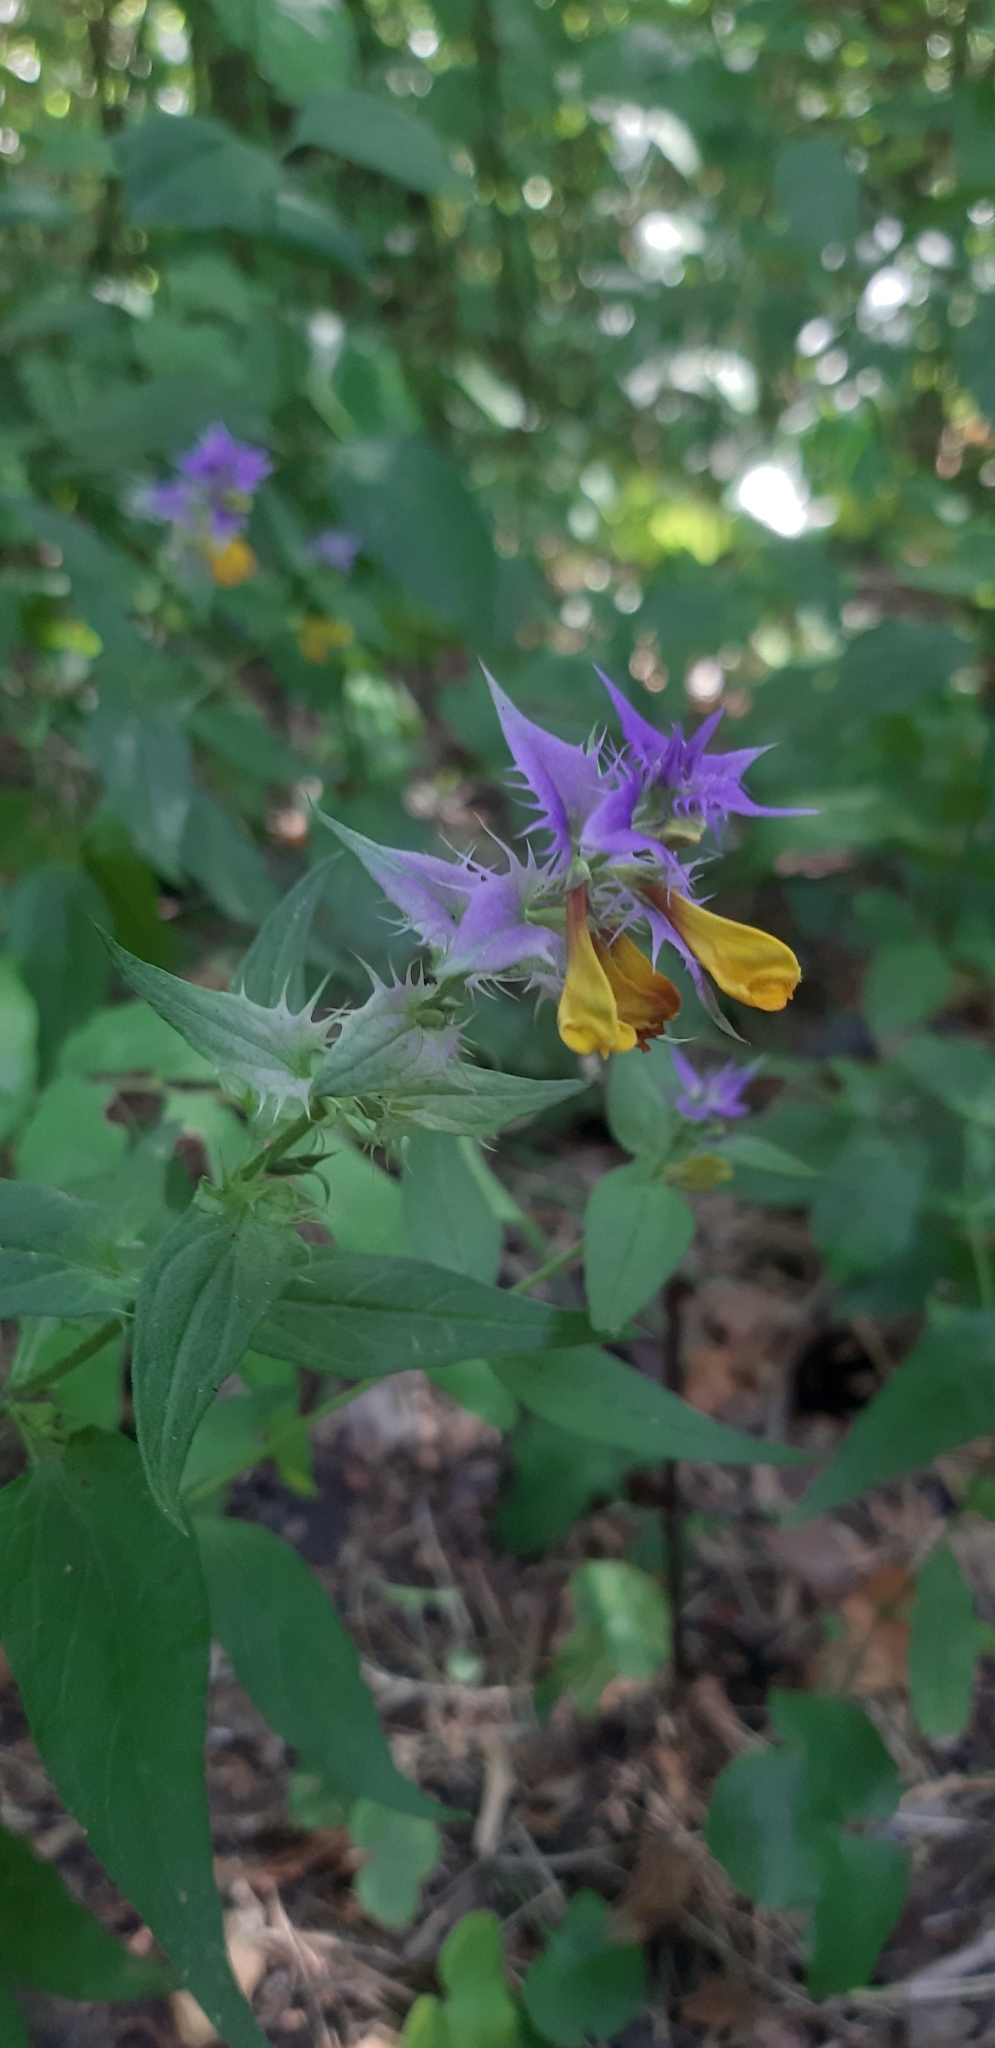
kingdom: Plantae
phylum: Tracheophyta
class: Magnoliopsida
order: Lamiales
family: Orobanchaceae
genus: Melampyrum
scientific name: Melampyrum nemorosum
